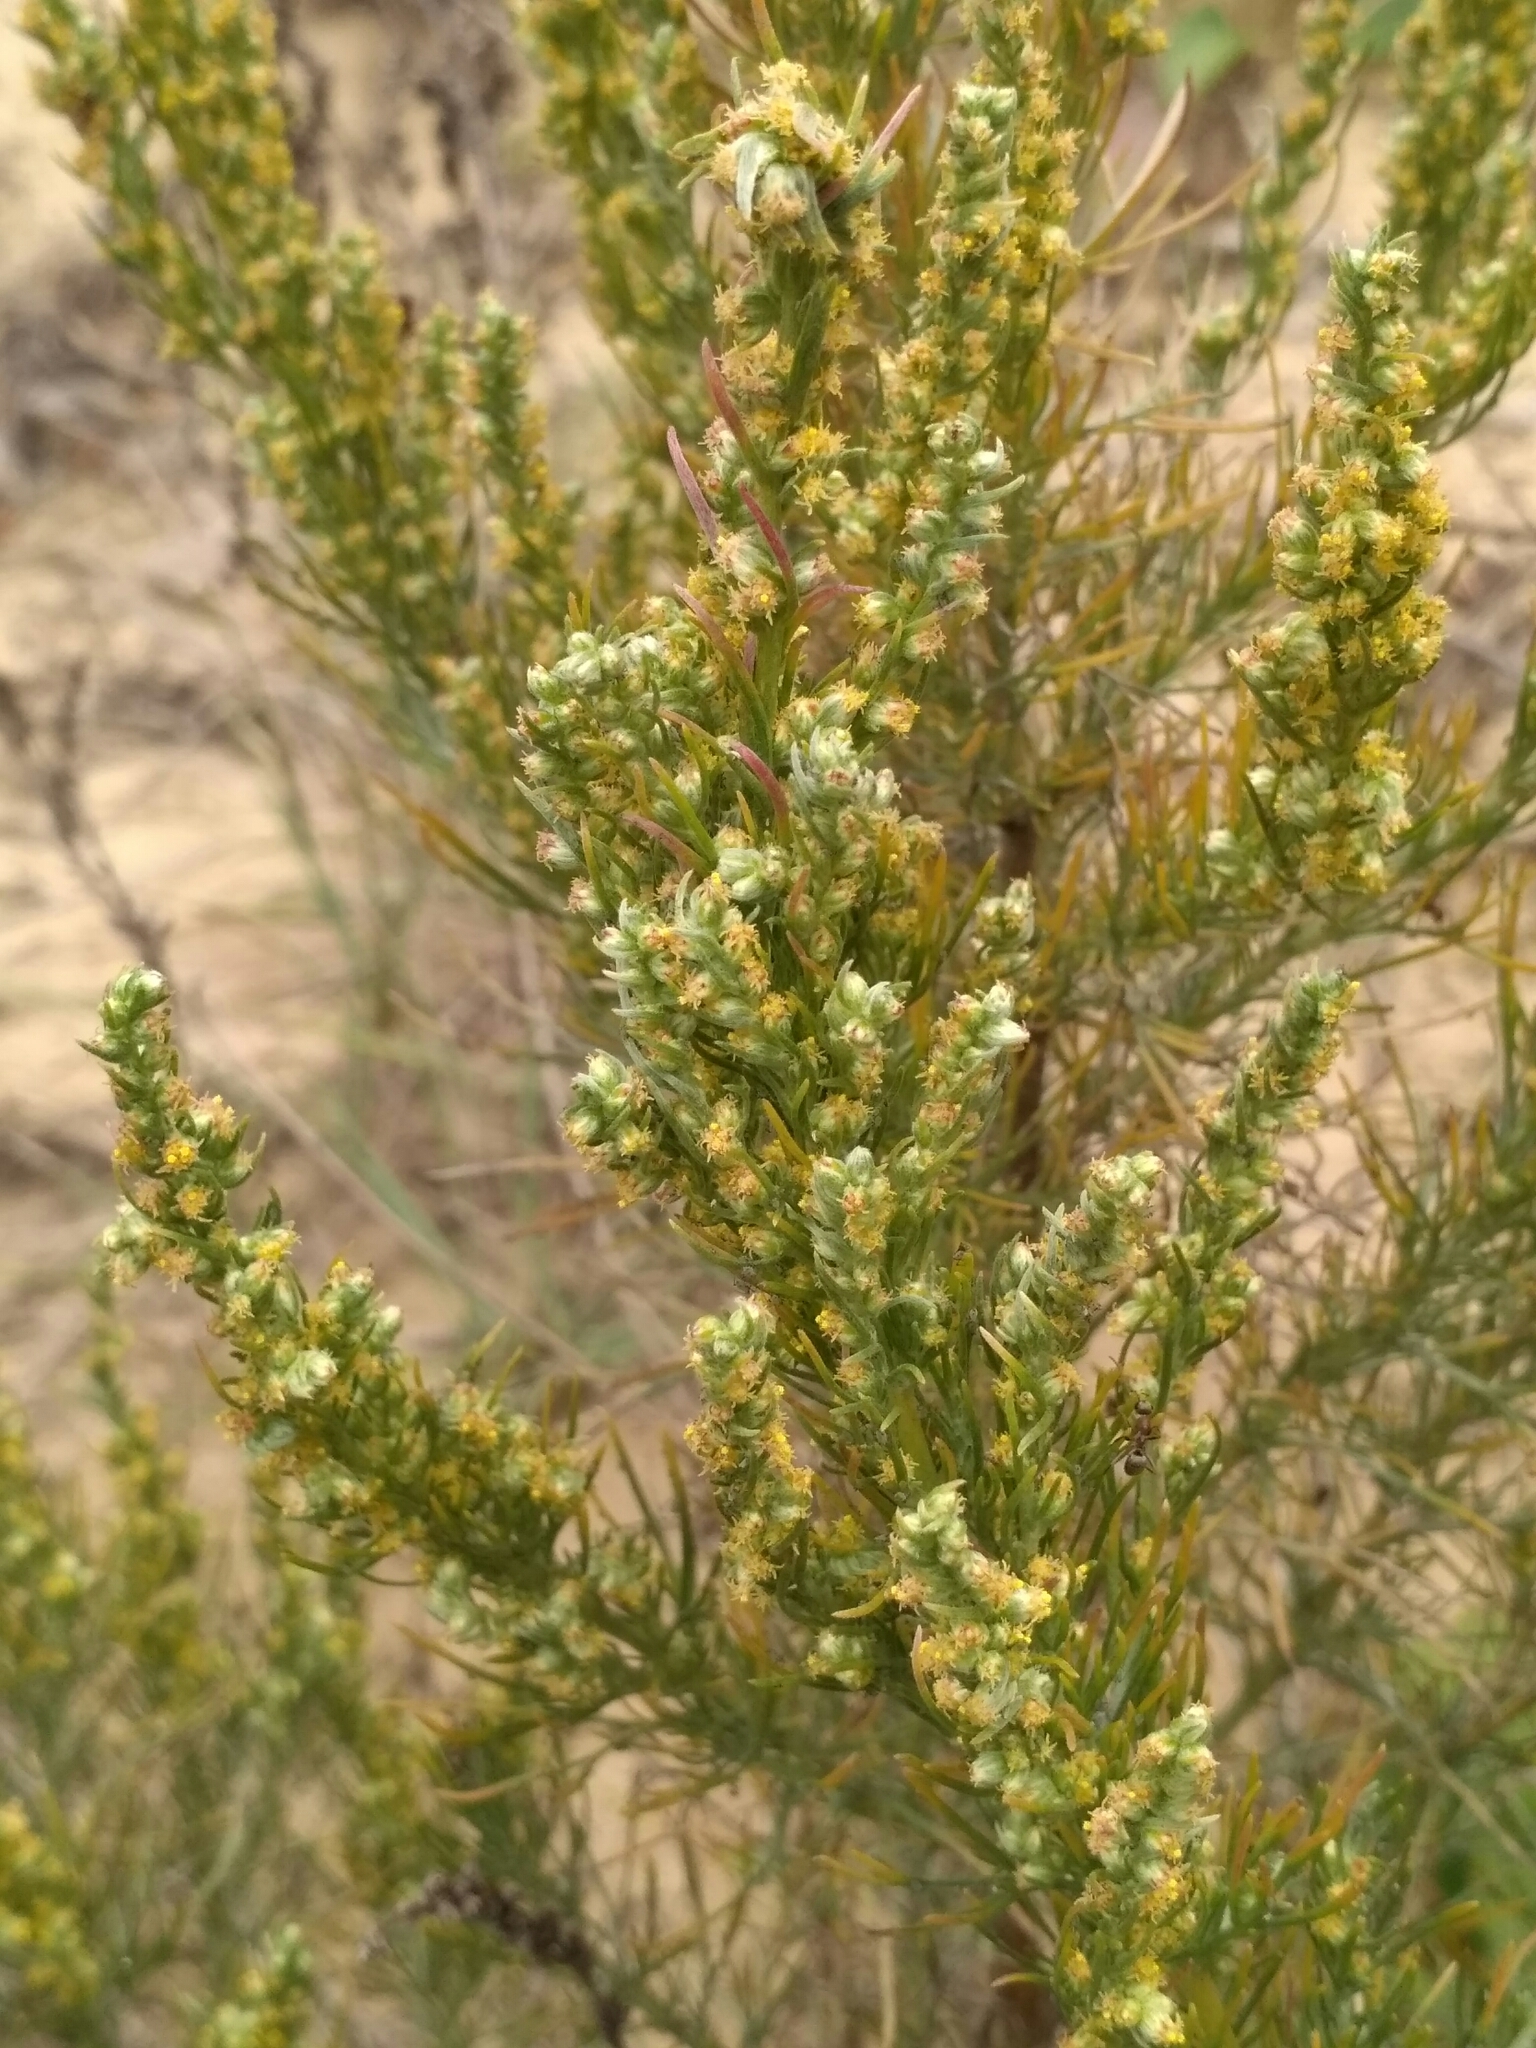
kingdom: Plantae
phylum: Tracheophyta
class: Magnoliopsida
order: Asterales
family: Asteraceae
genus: Artemisia
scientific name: Artemisia marschalliana
